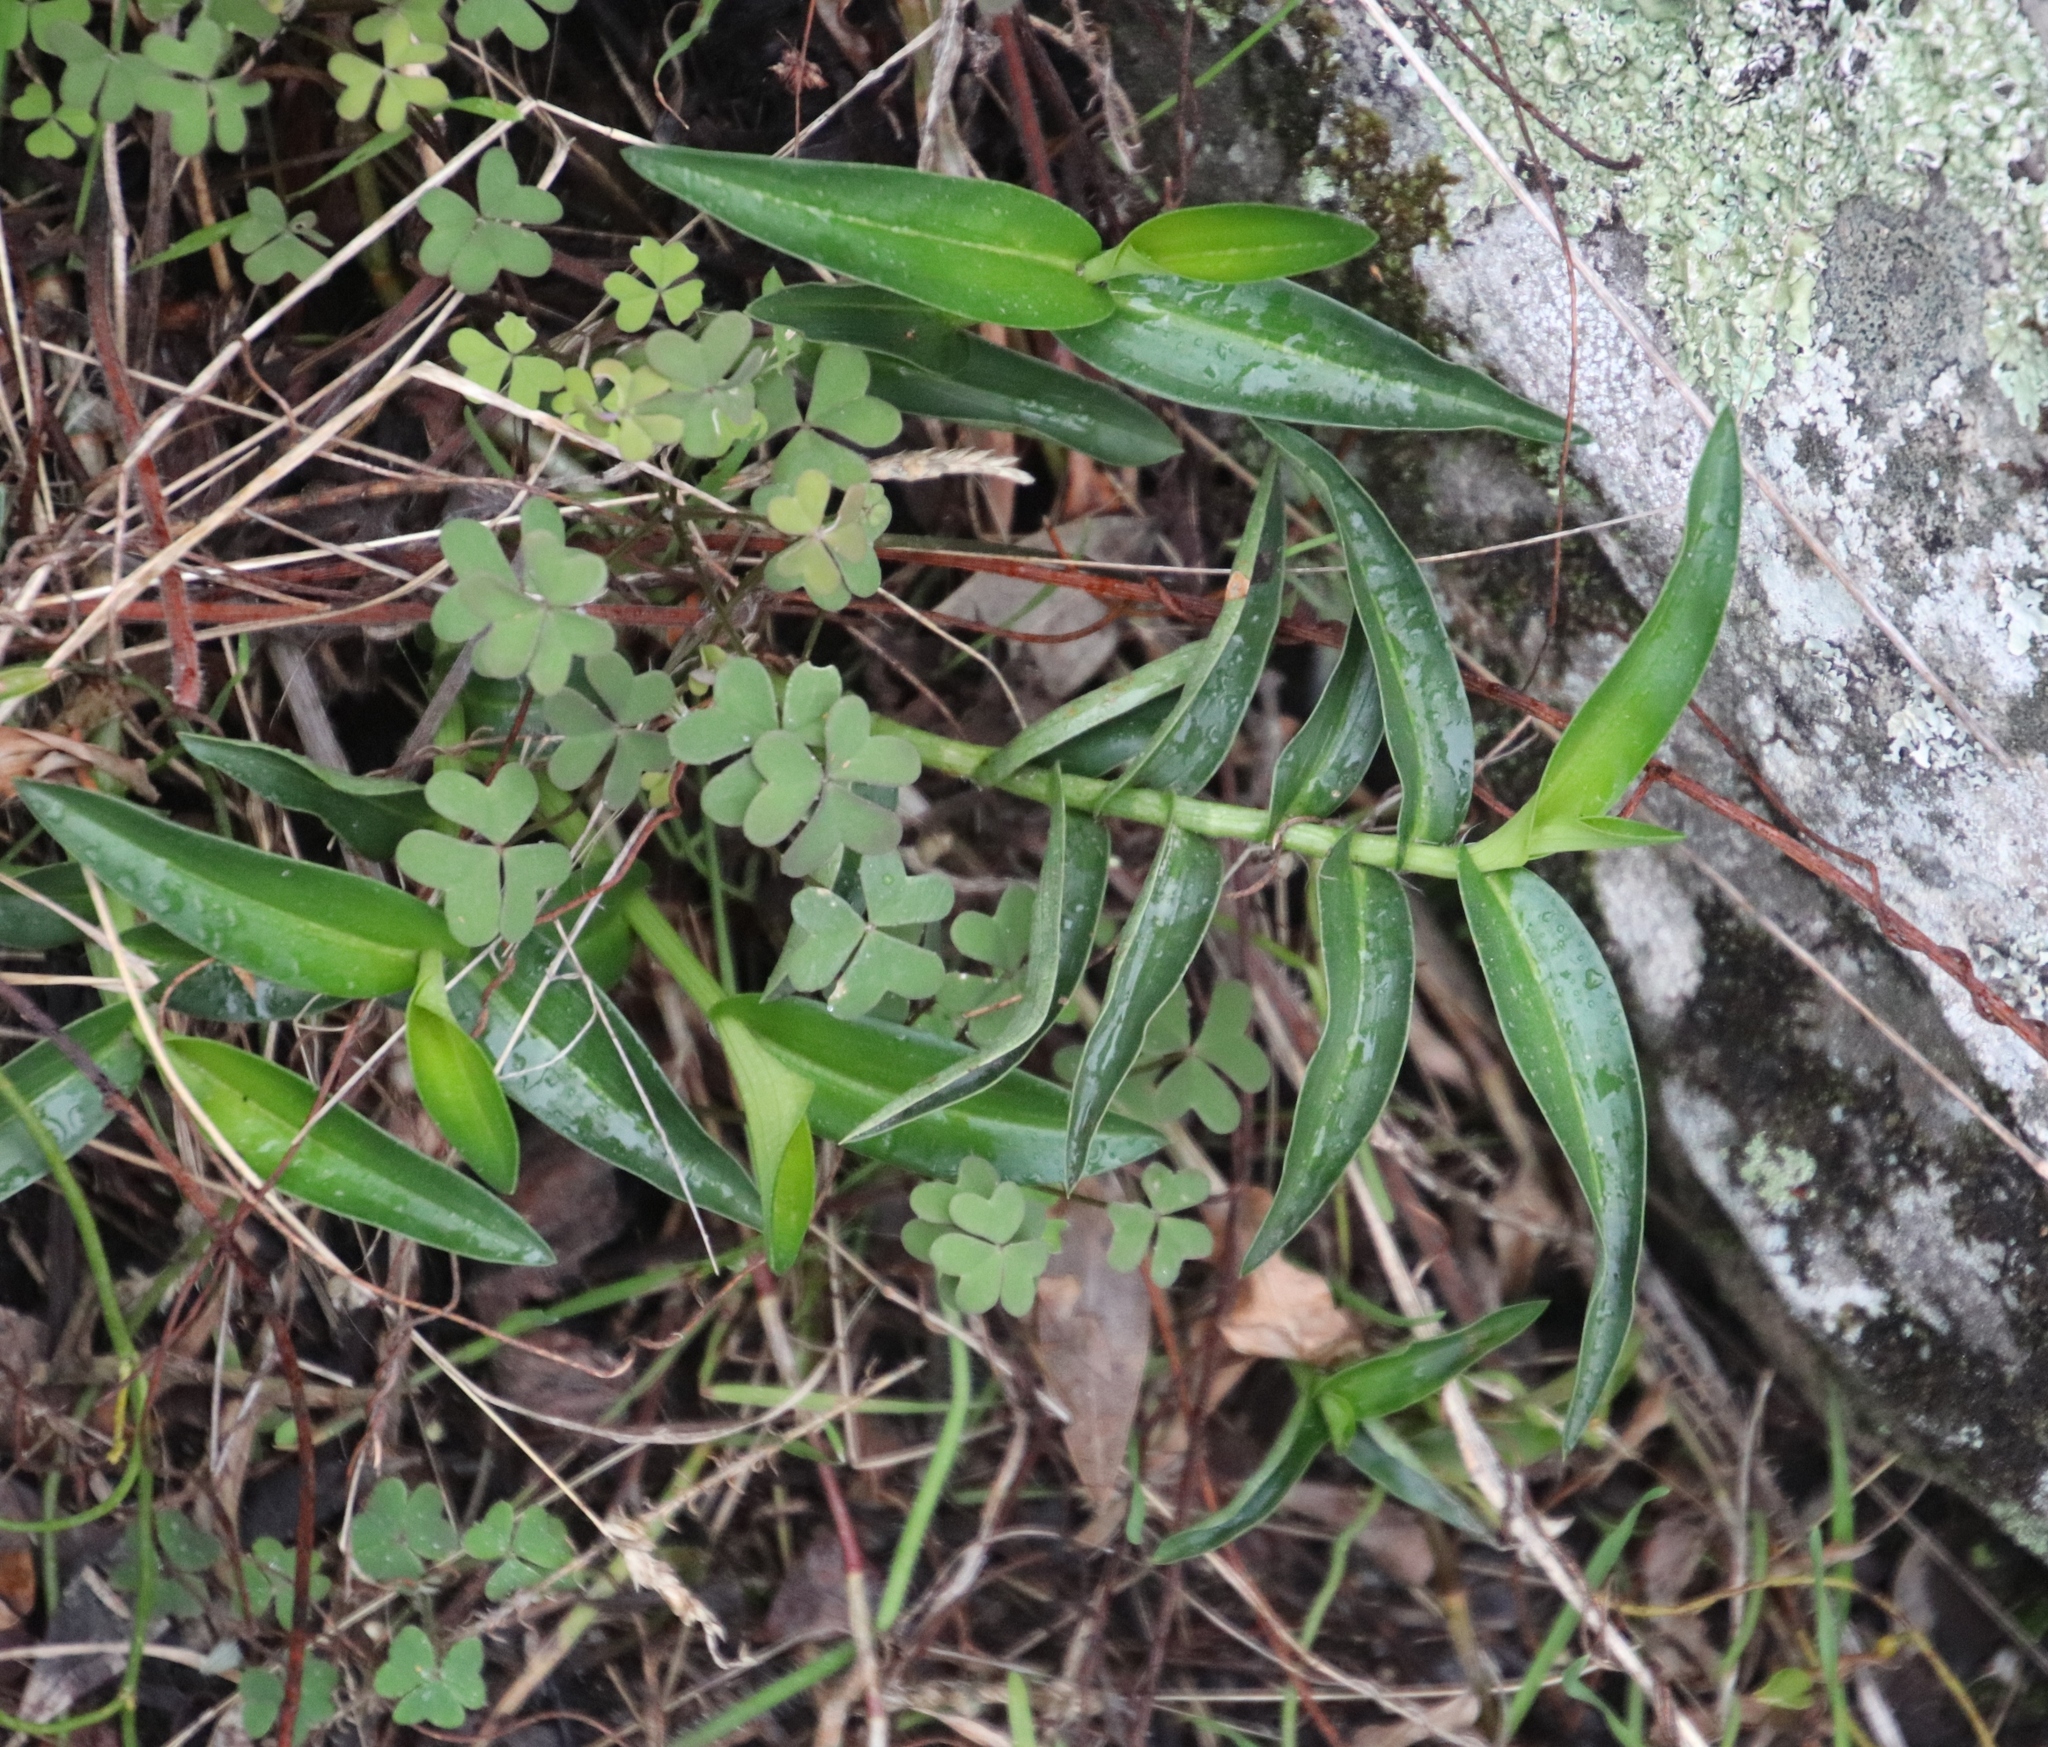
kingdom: Plantae
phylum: Tracheophyta
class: Liliopsida
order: Commelinales
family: Commelinaceae
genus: Commelina
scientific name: Commelina africana
